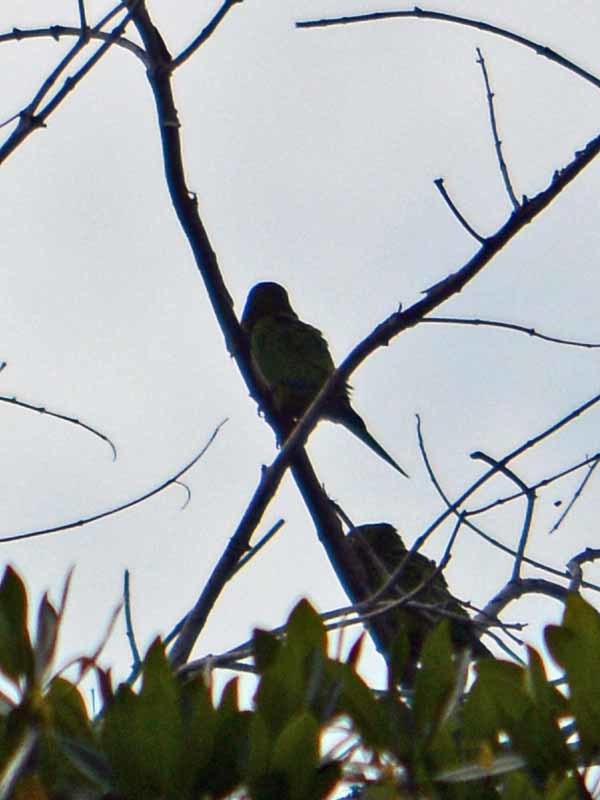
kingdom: Animalia
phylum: Chordata
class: Aves
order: Psittaciformes
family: Psittacidae
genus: Aratinga
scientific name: Aratinga nana
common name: Olive-throated parakeet
